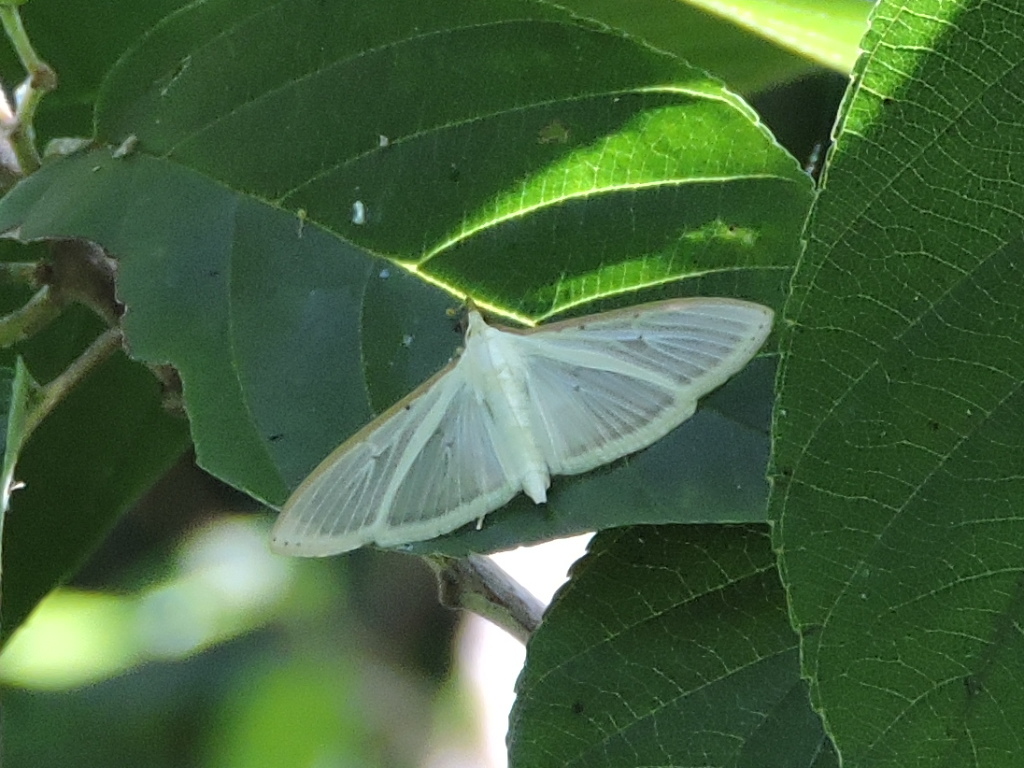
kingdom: Animalia
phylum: Arthropoda
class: Insecta
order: Lepidoptera
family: Crambidae
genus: Palpita
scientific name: Palpita quadristigmalis
